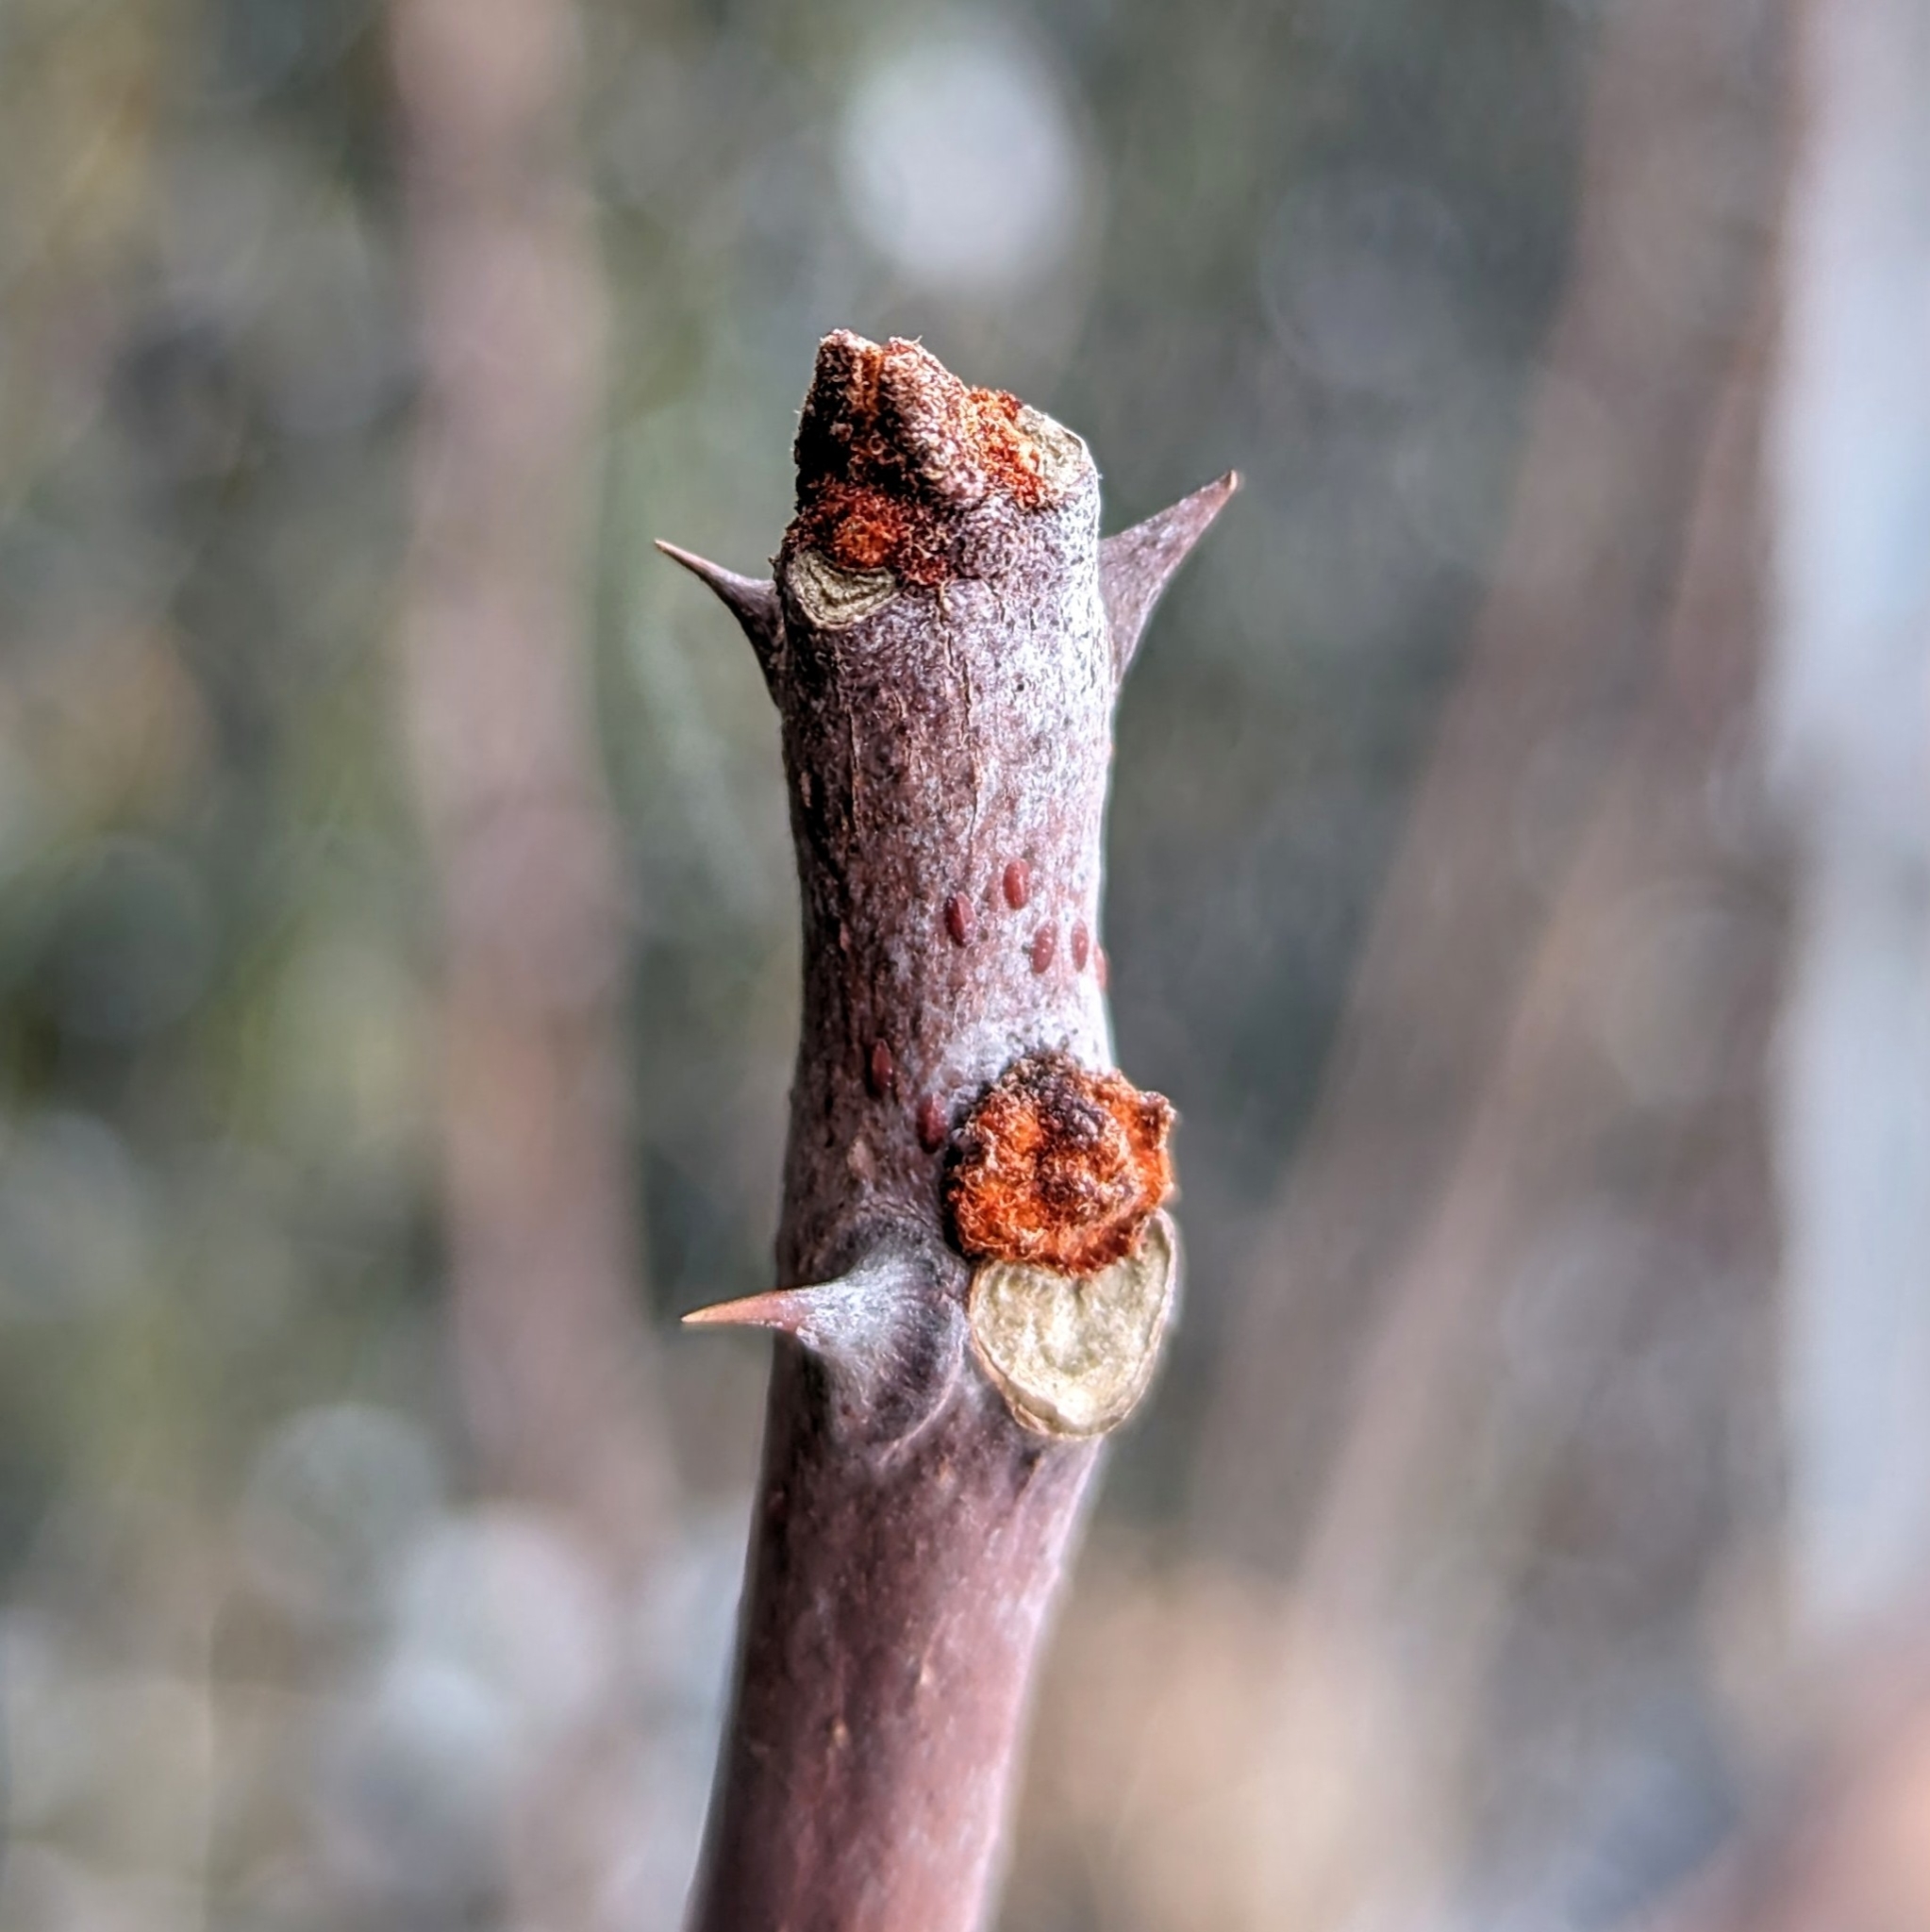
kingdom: Plantae
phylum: Tracheophyta
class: Magnoliopsida
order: Sapindales
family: Rutaceae
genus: Zanthoxylum
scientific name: Zanthoxylum americanum
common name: Northern prickly-ash
